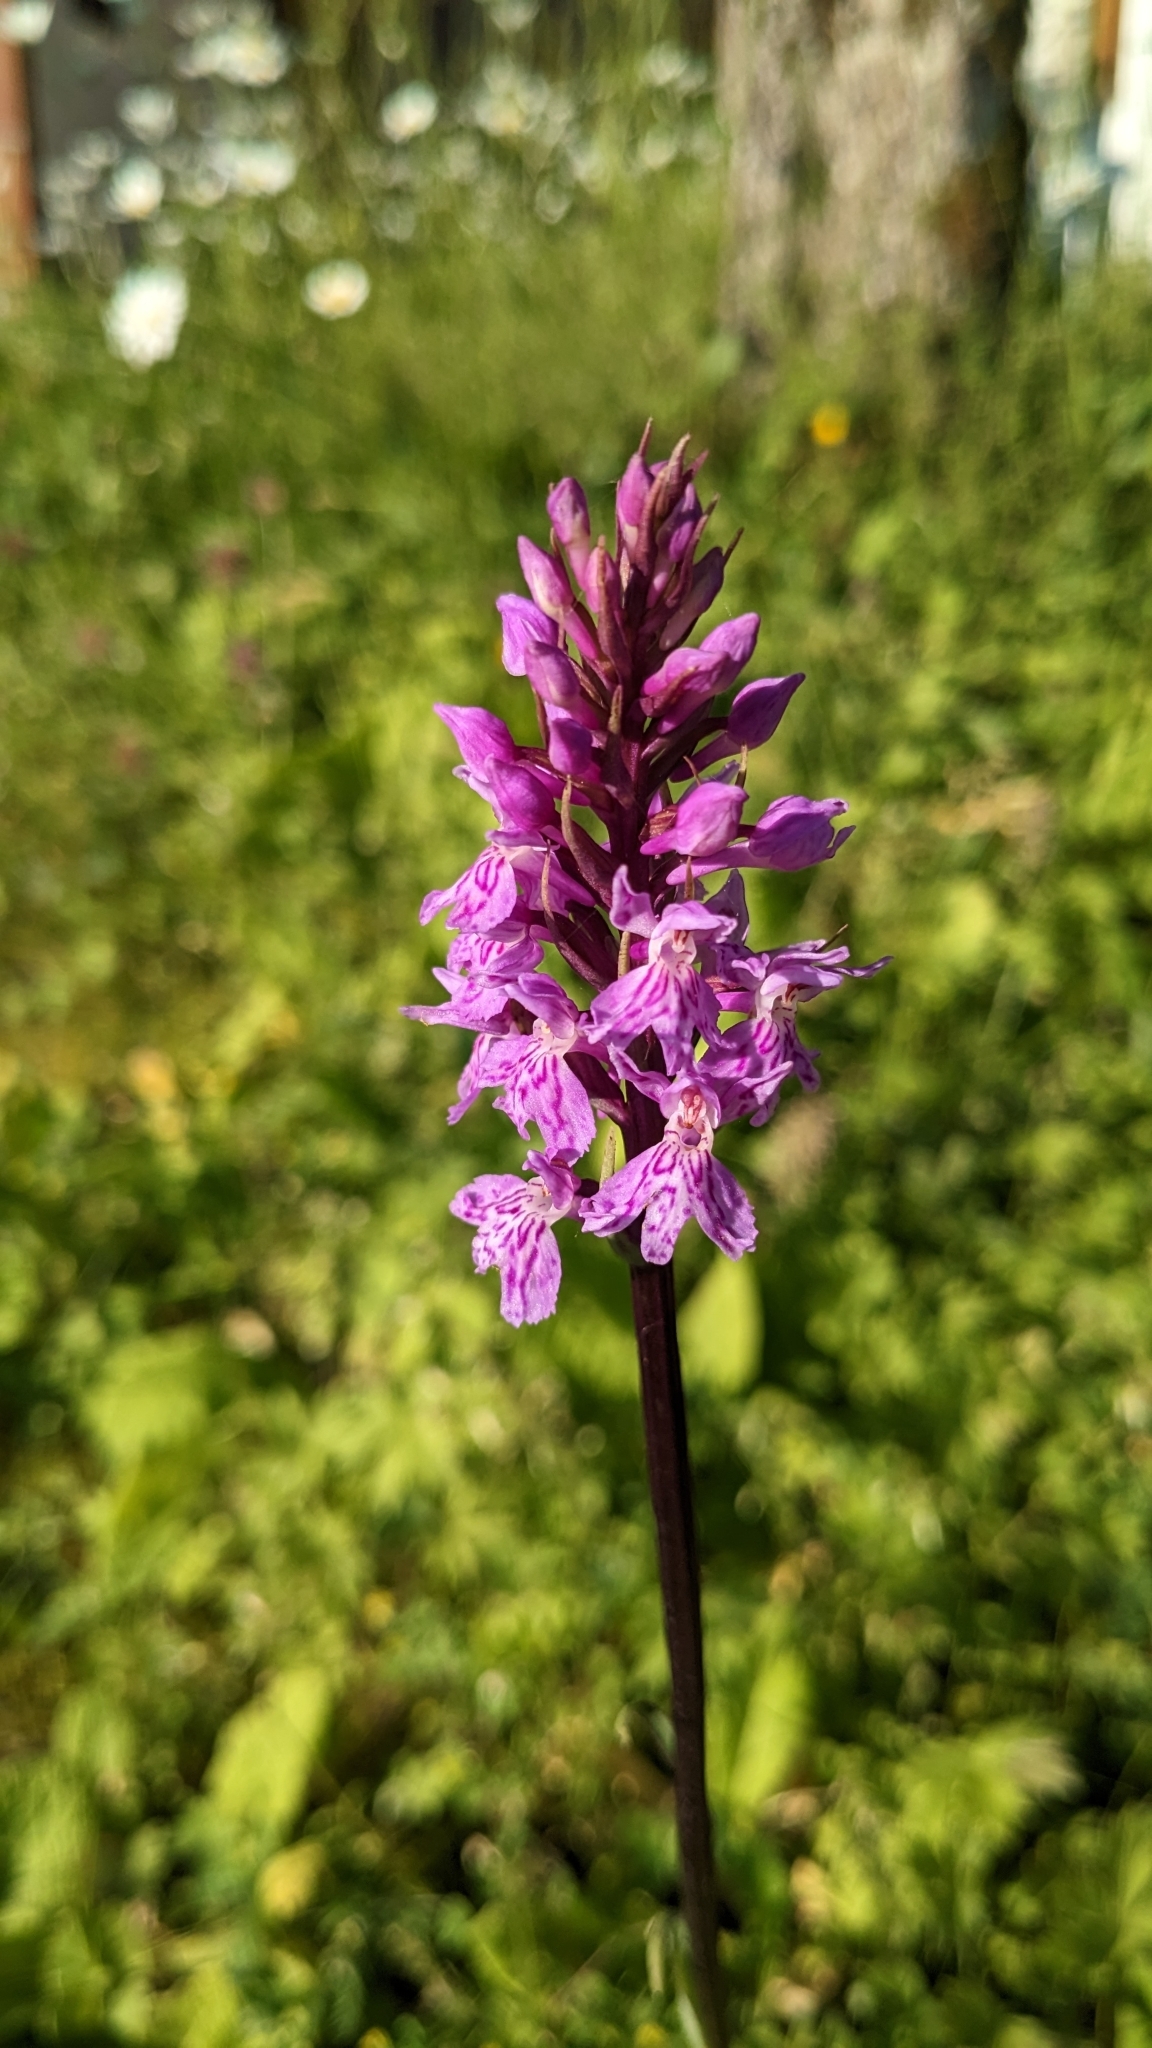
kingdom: Plantae
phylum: Tracheophyta
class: Liliopsida
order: Asparagales
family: Orchidaceae
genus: Dactylorhiza
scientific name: Dactylorhiza maculata
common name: Heath spotted-orchid
